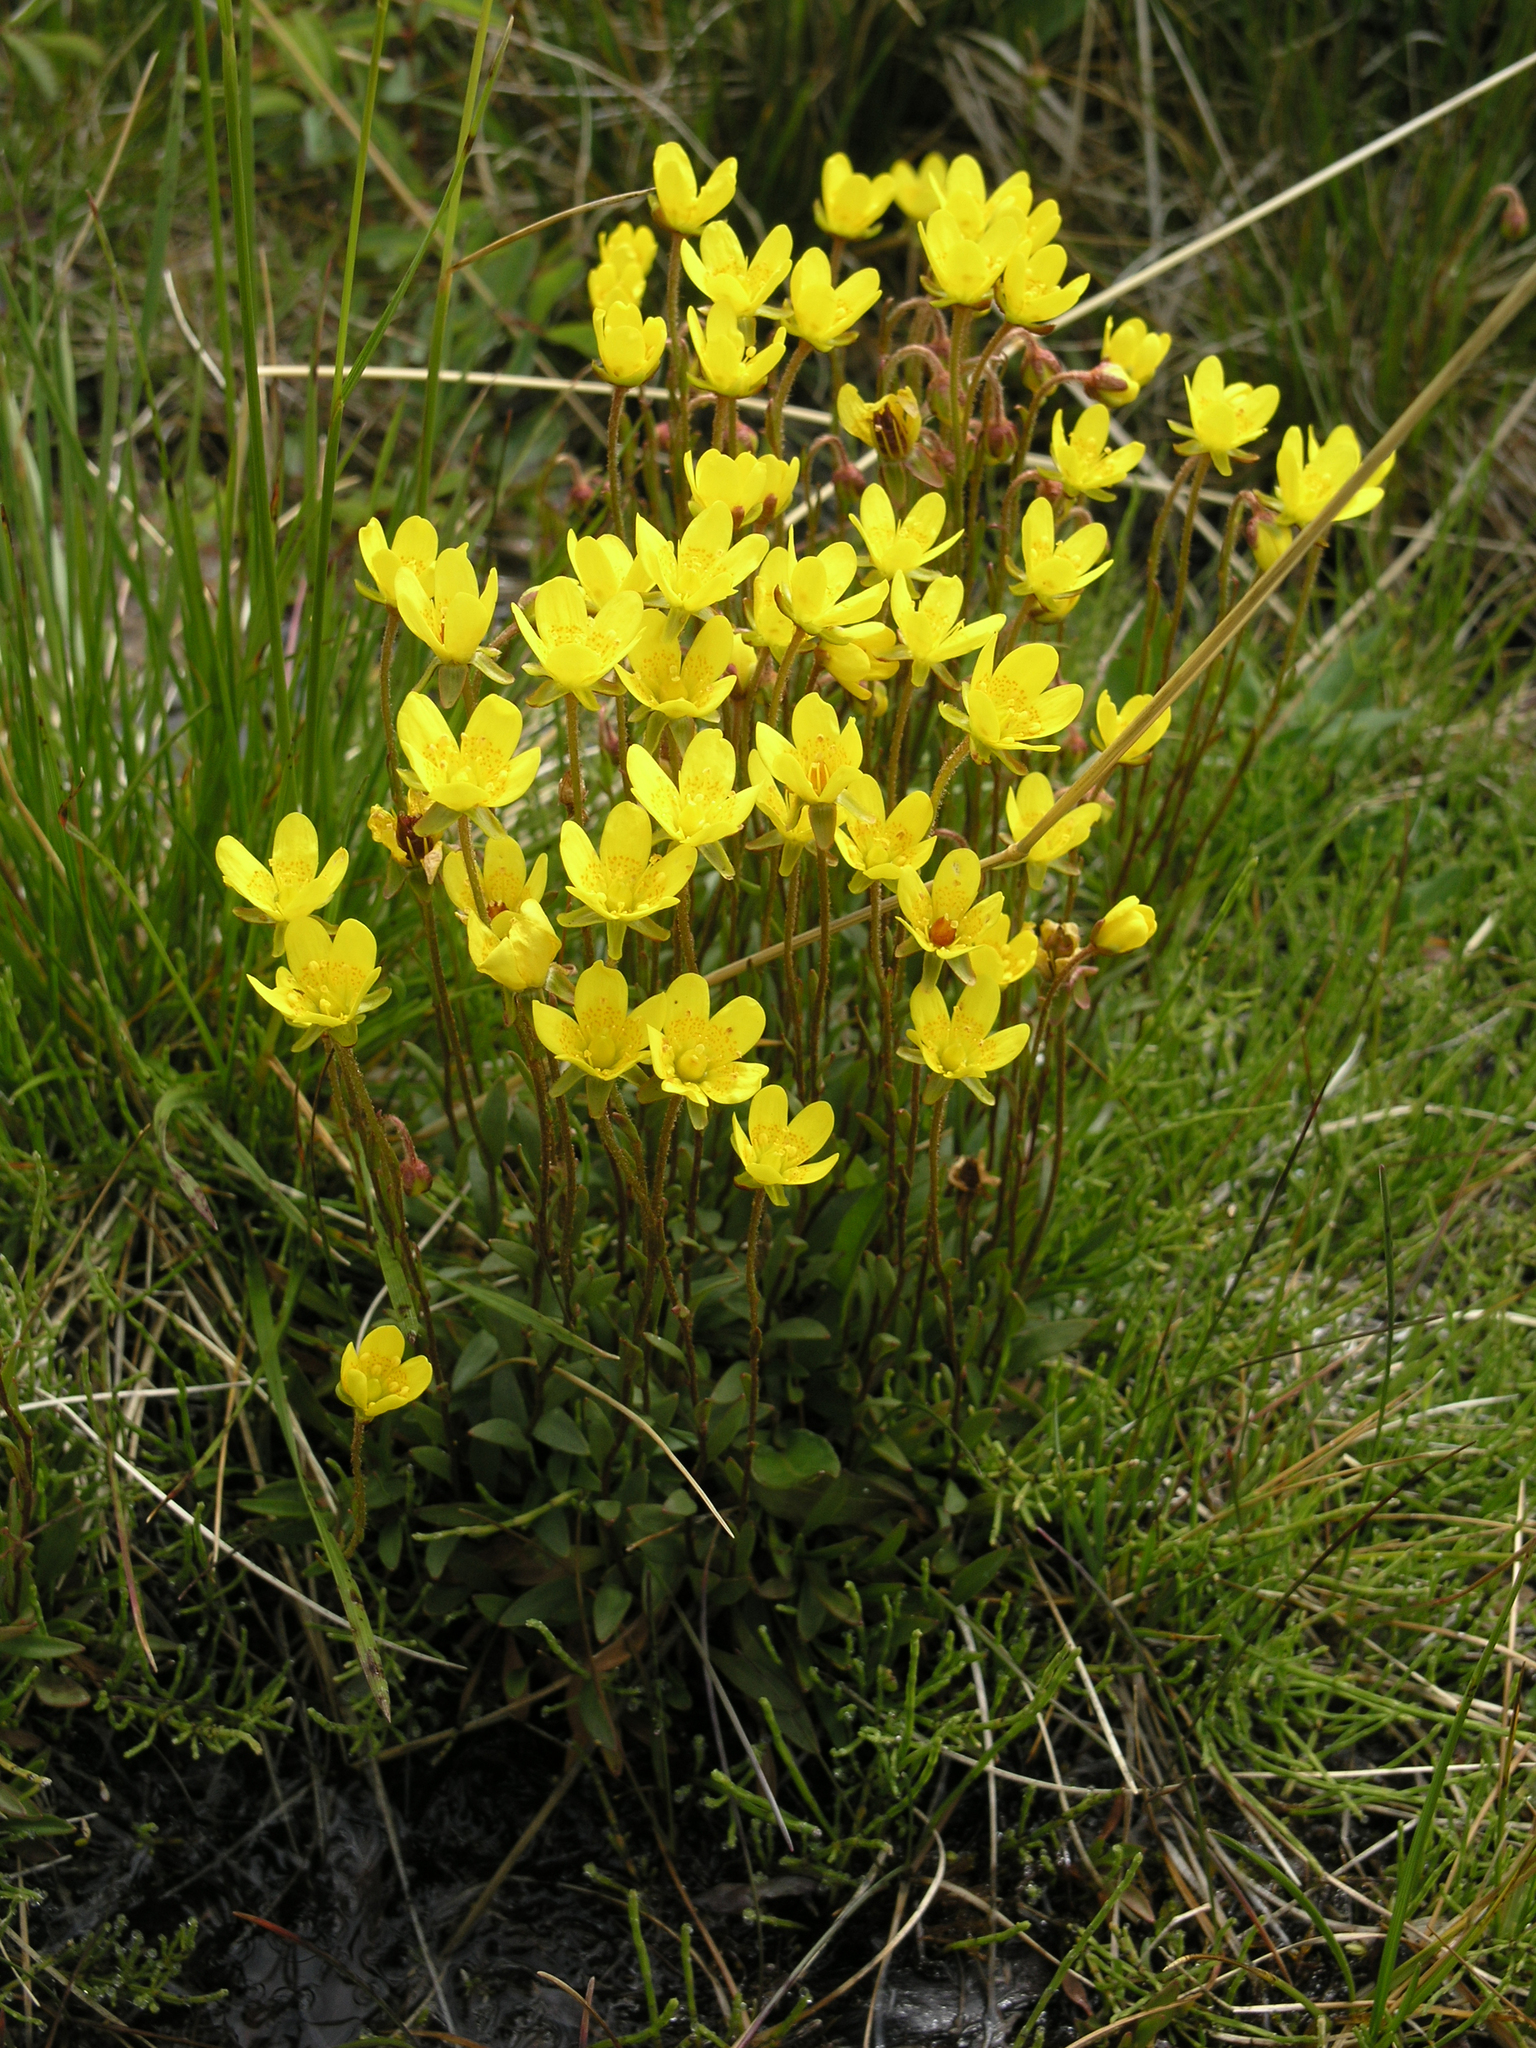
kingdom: Plantae
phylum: Tracheophyta
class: Magnoliopsida
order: Saxifragales
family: Saxifragaceae
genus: Saxifraga
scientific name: Saxifraga hirculus
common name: Yellow marsh saxifrage
